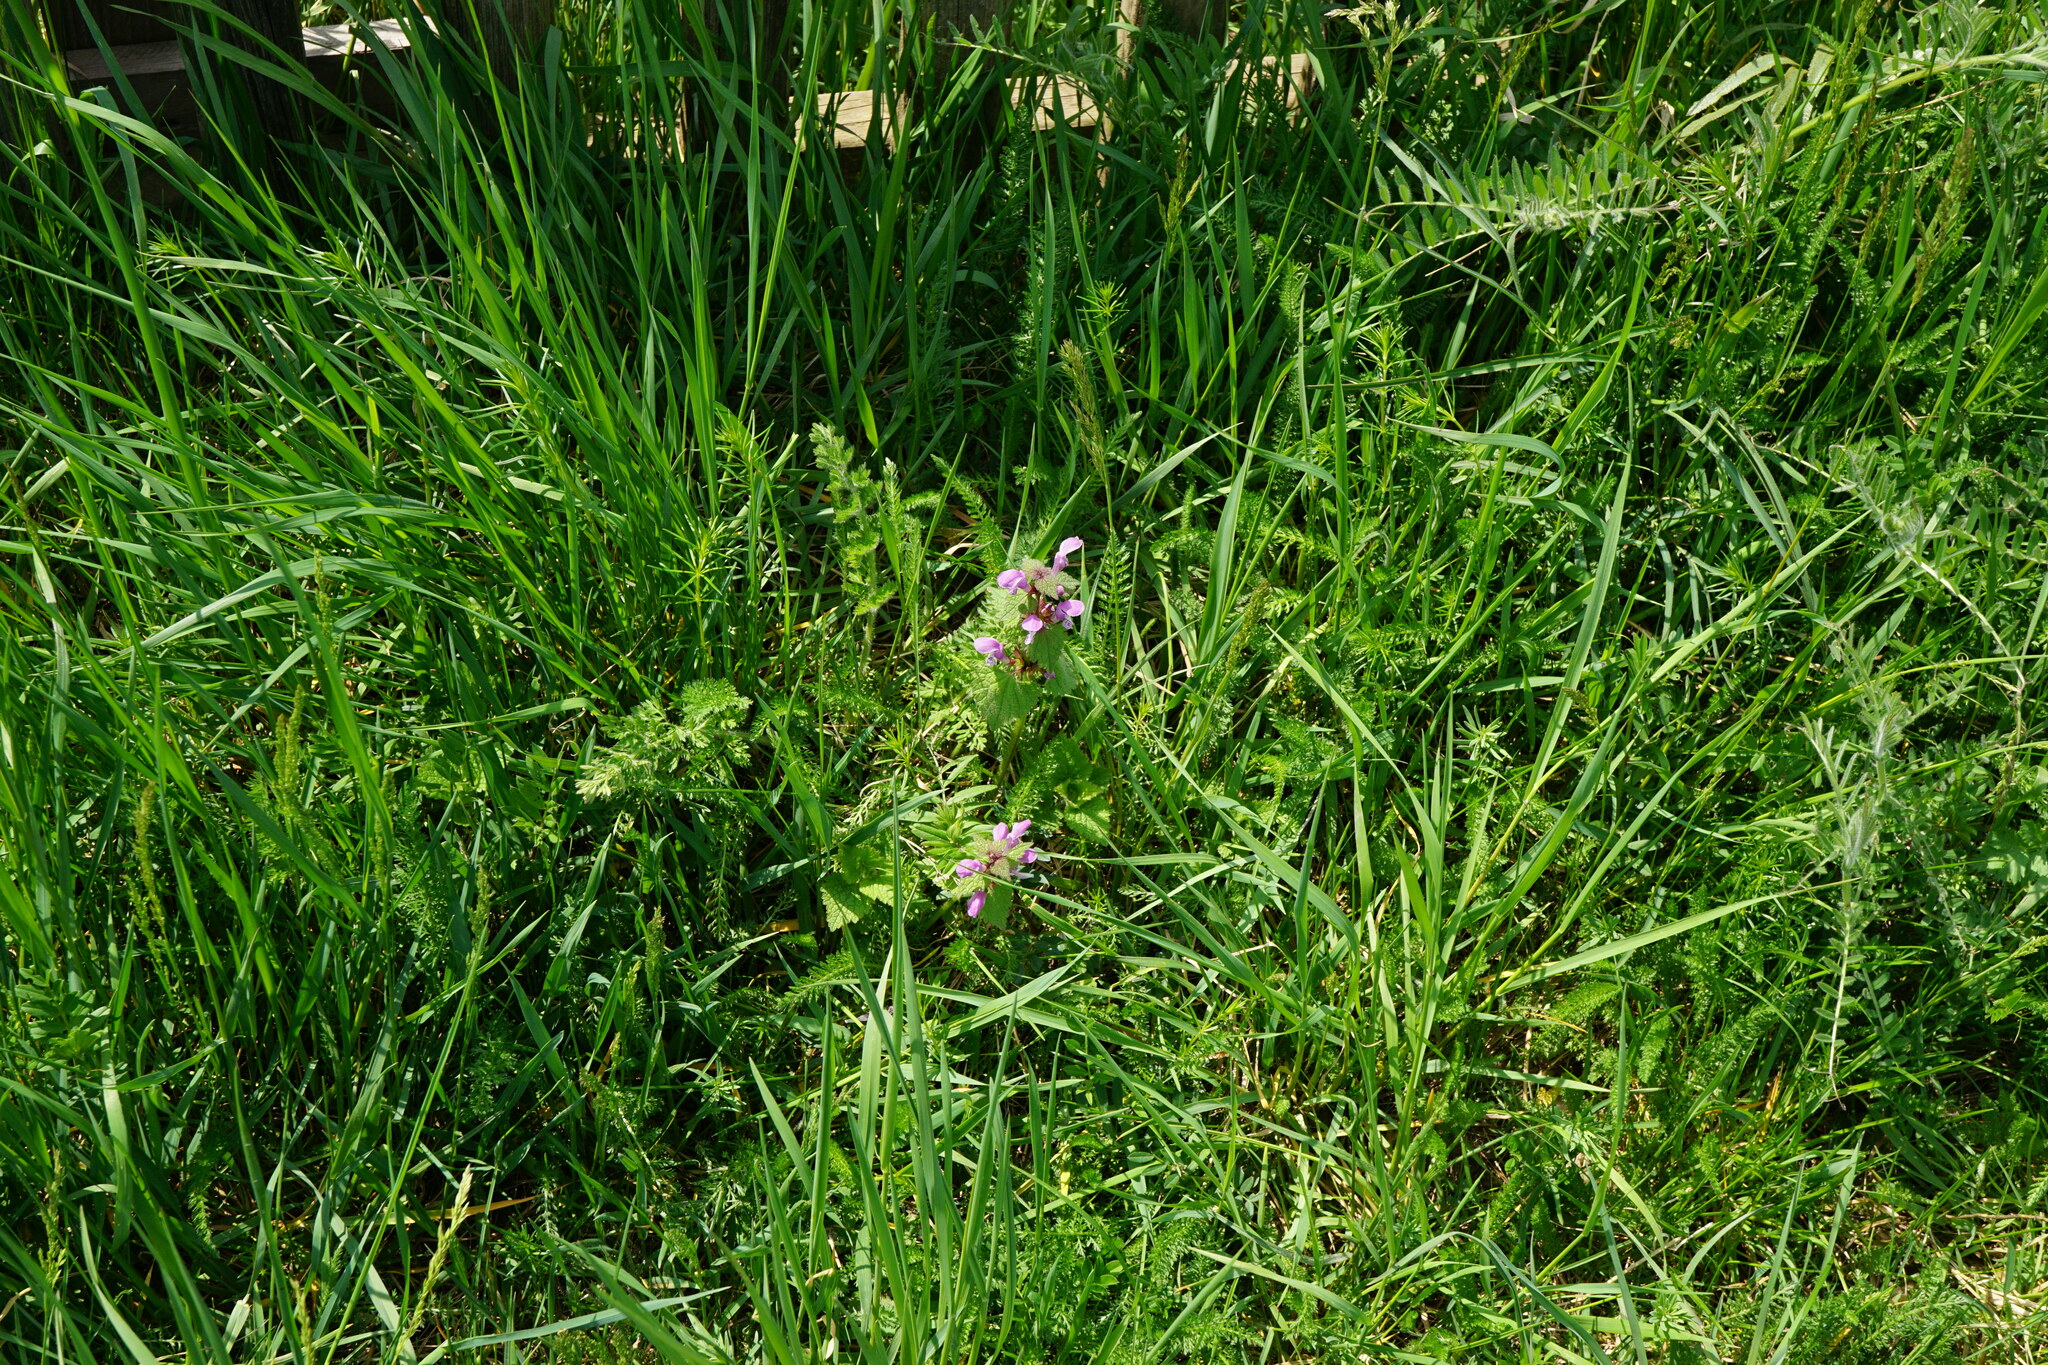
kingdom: Plantae
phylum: Tracheophyta
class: Magnoliopsida
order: Lamiales
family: Lamiaceae
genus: Lamium
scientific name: Lamium maculatum
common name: Spotted dead-nettle
